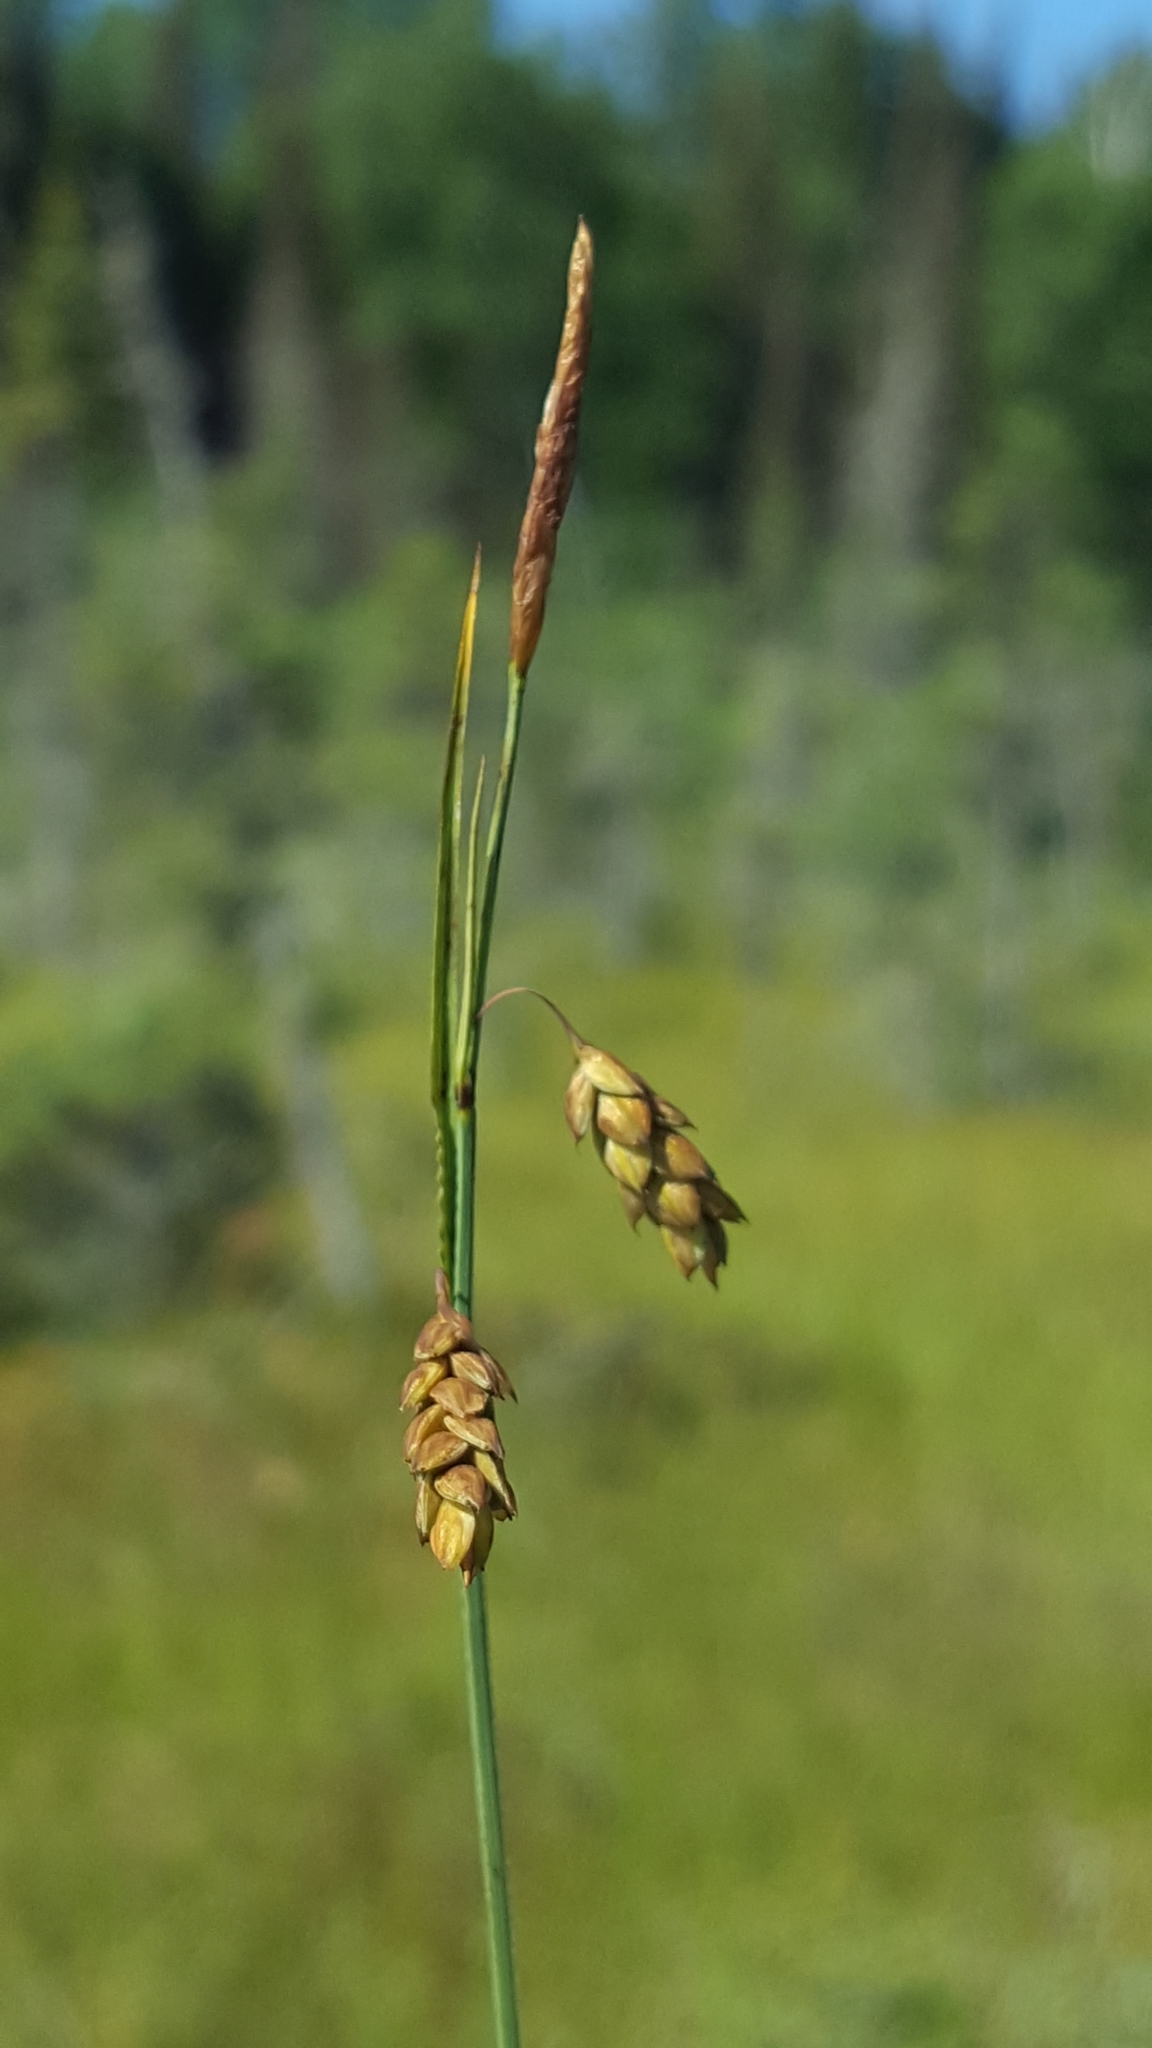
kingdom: Plantae
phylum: Tracheophyta
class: Liliopsida
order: Poales
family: Cyperaceae
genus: Carex
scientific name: Carex limosa
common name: Bog sedge
